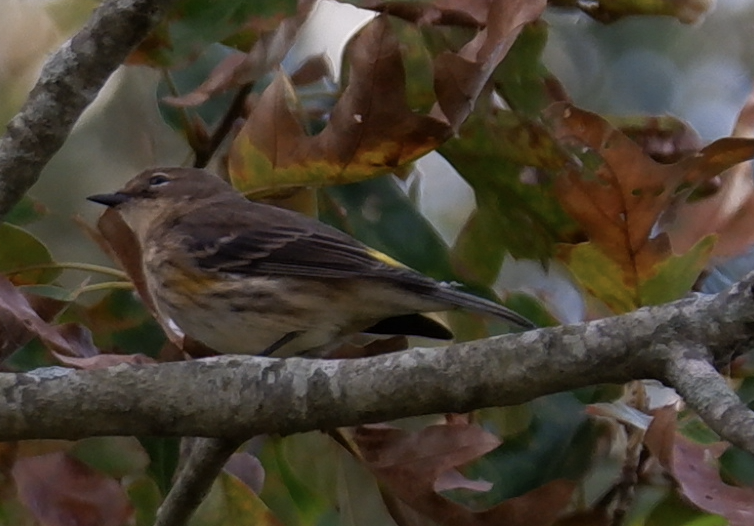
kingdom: Animalia
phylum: Chordata
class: Aves
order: Passeriformes
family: Parulidae
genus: Setophaga
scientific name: Setophaga coronata
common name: Myrtle warbler
